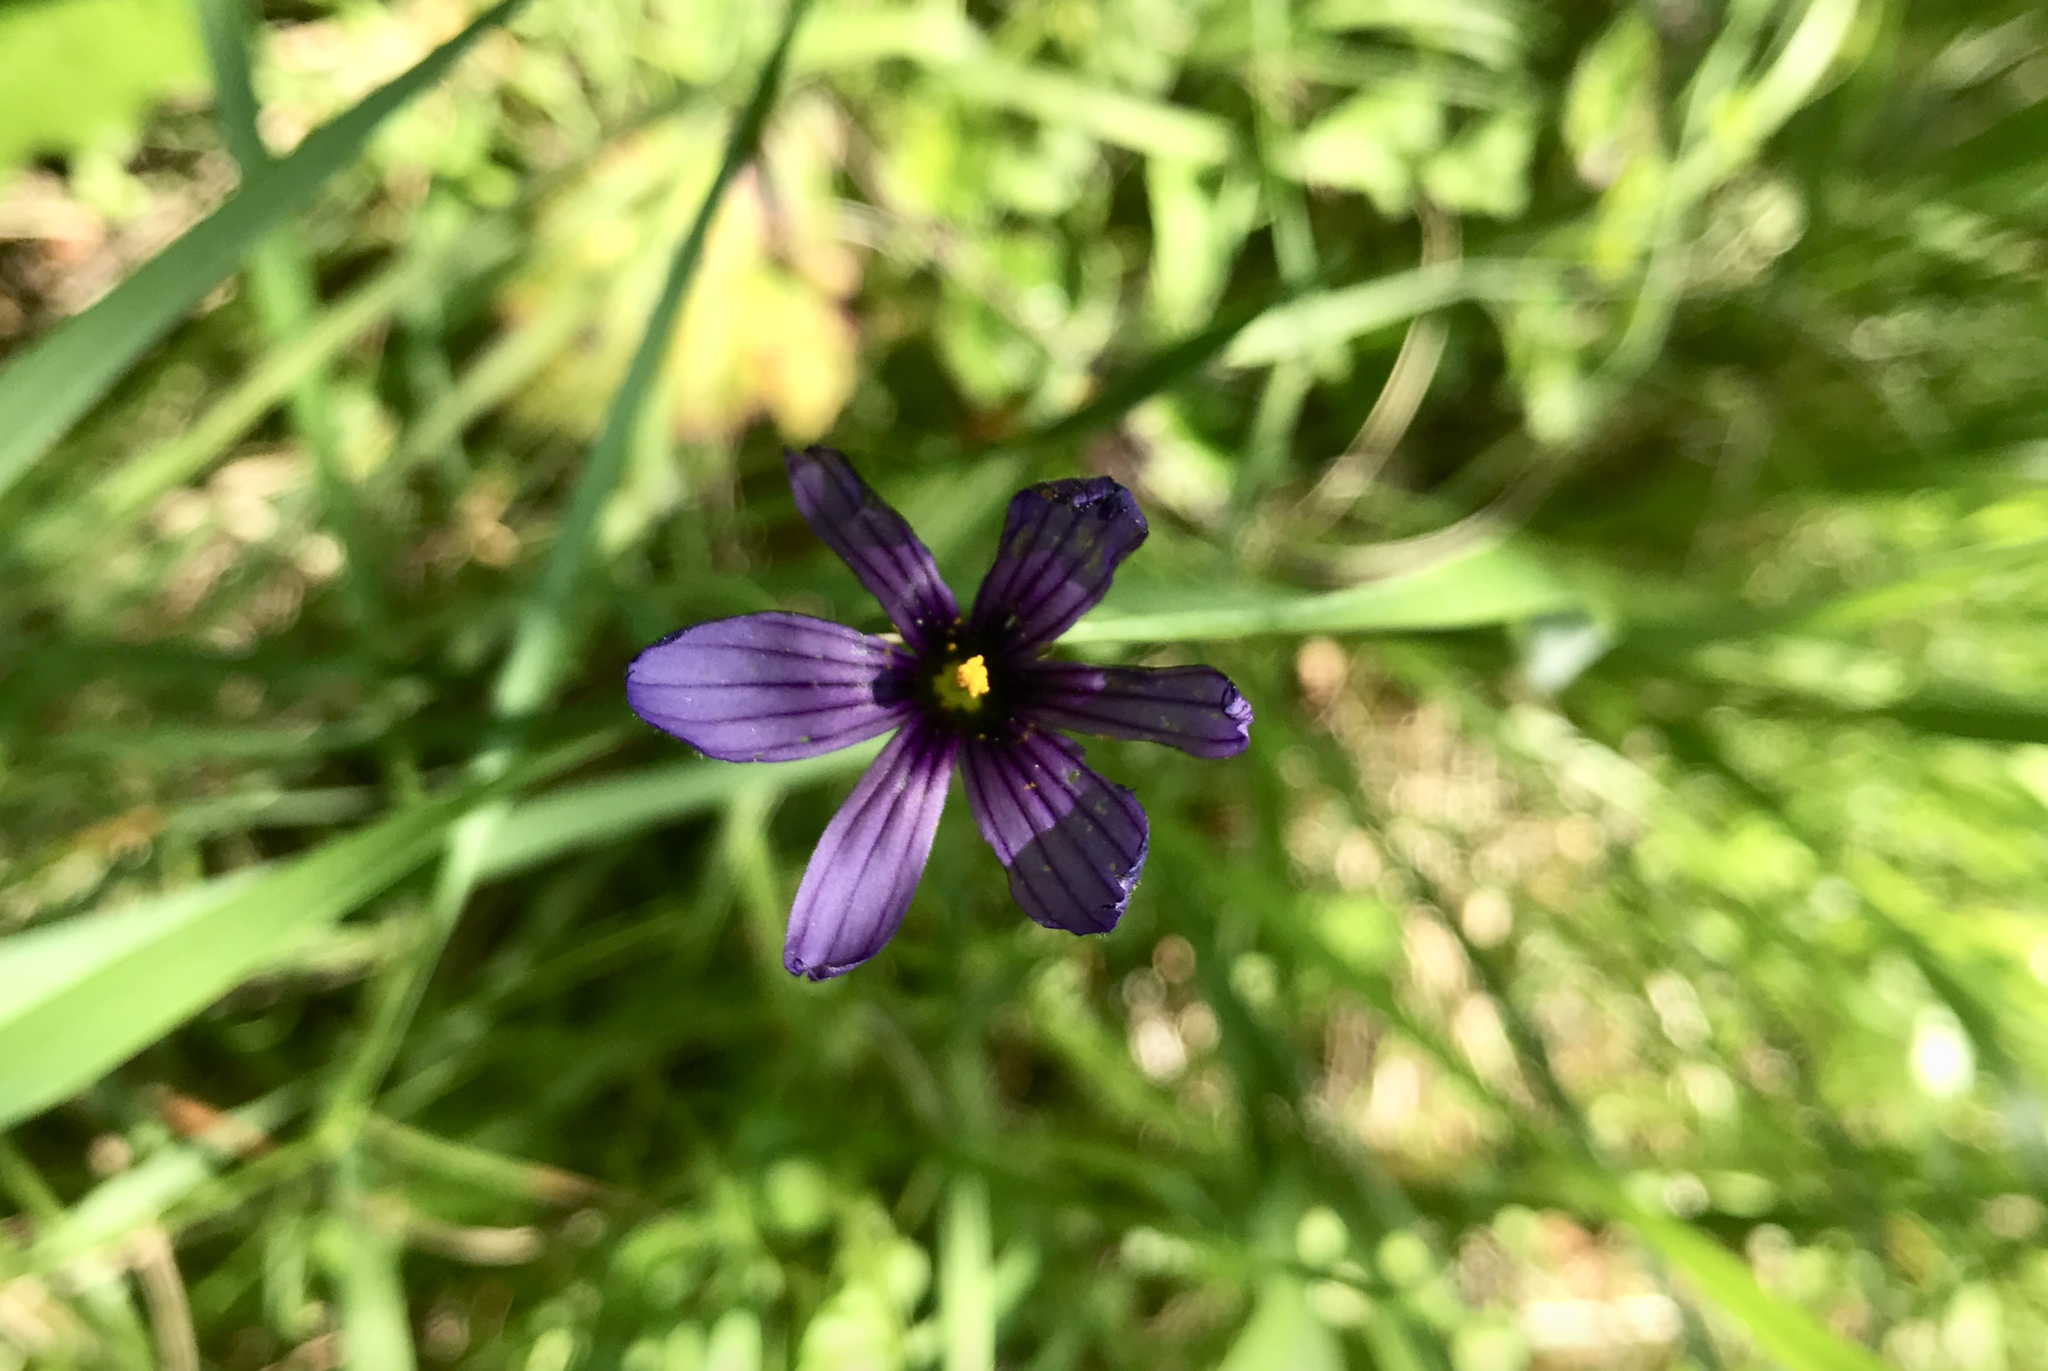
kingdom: Plantae
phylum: Tracheophyta
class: Liliopsida
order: Asparagales
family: Iridaceae
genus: Sisyrinchium
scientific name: Sisyrinchium bellum
